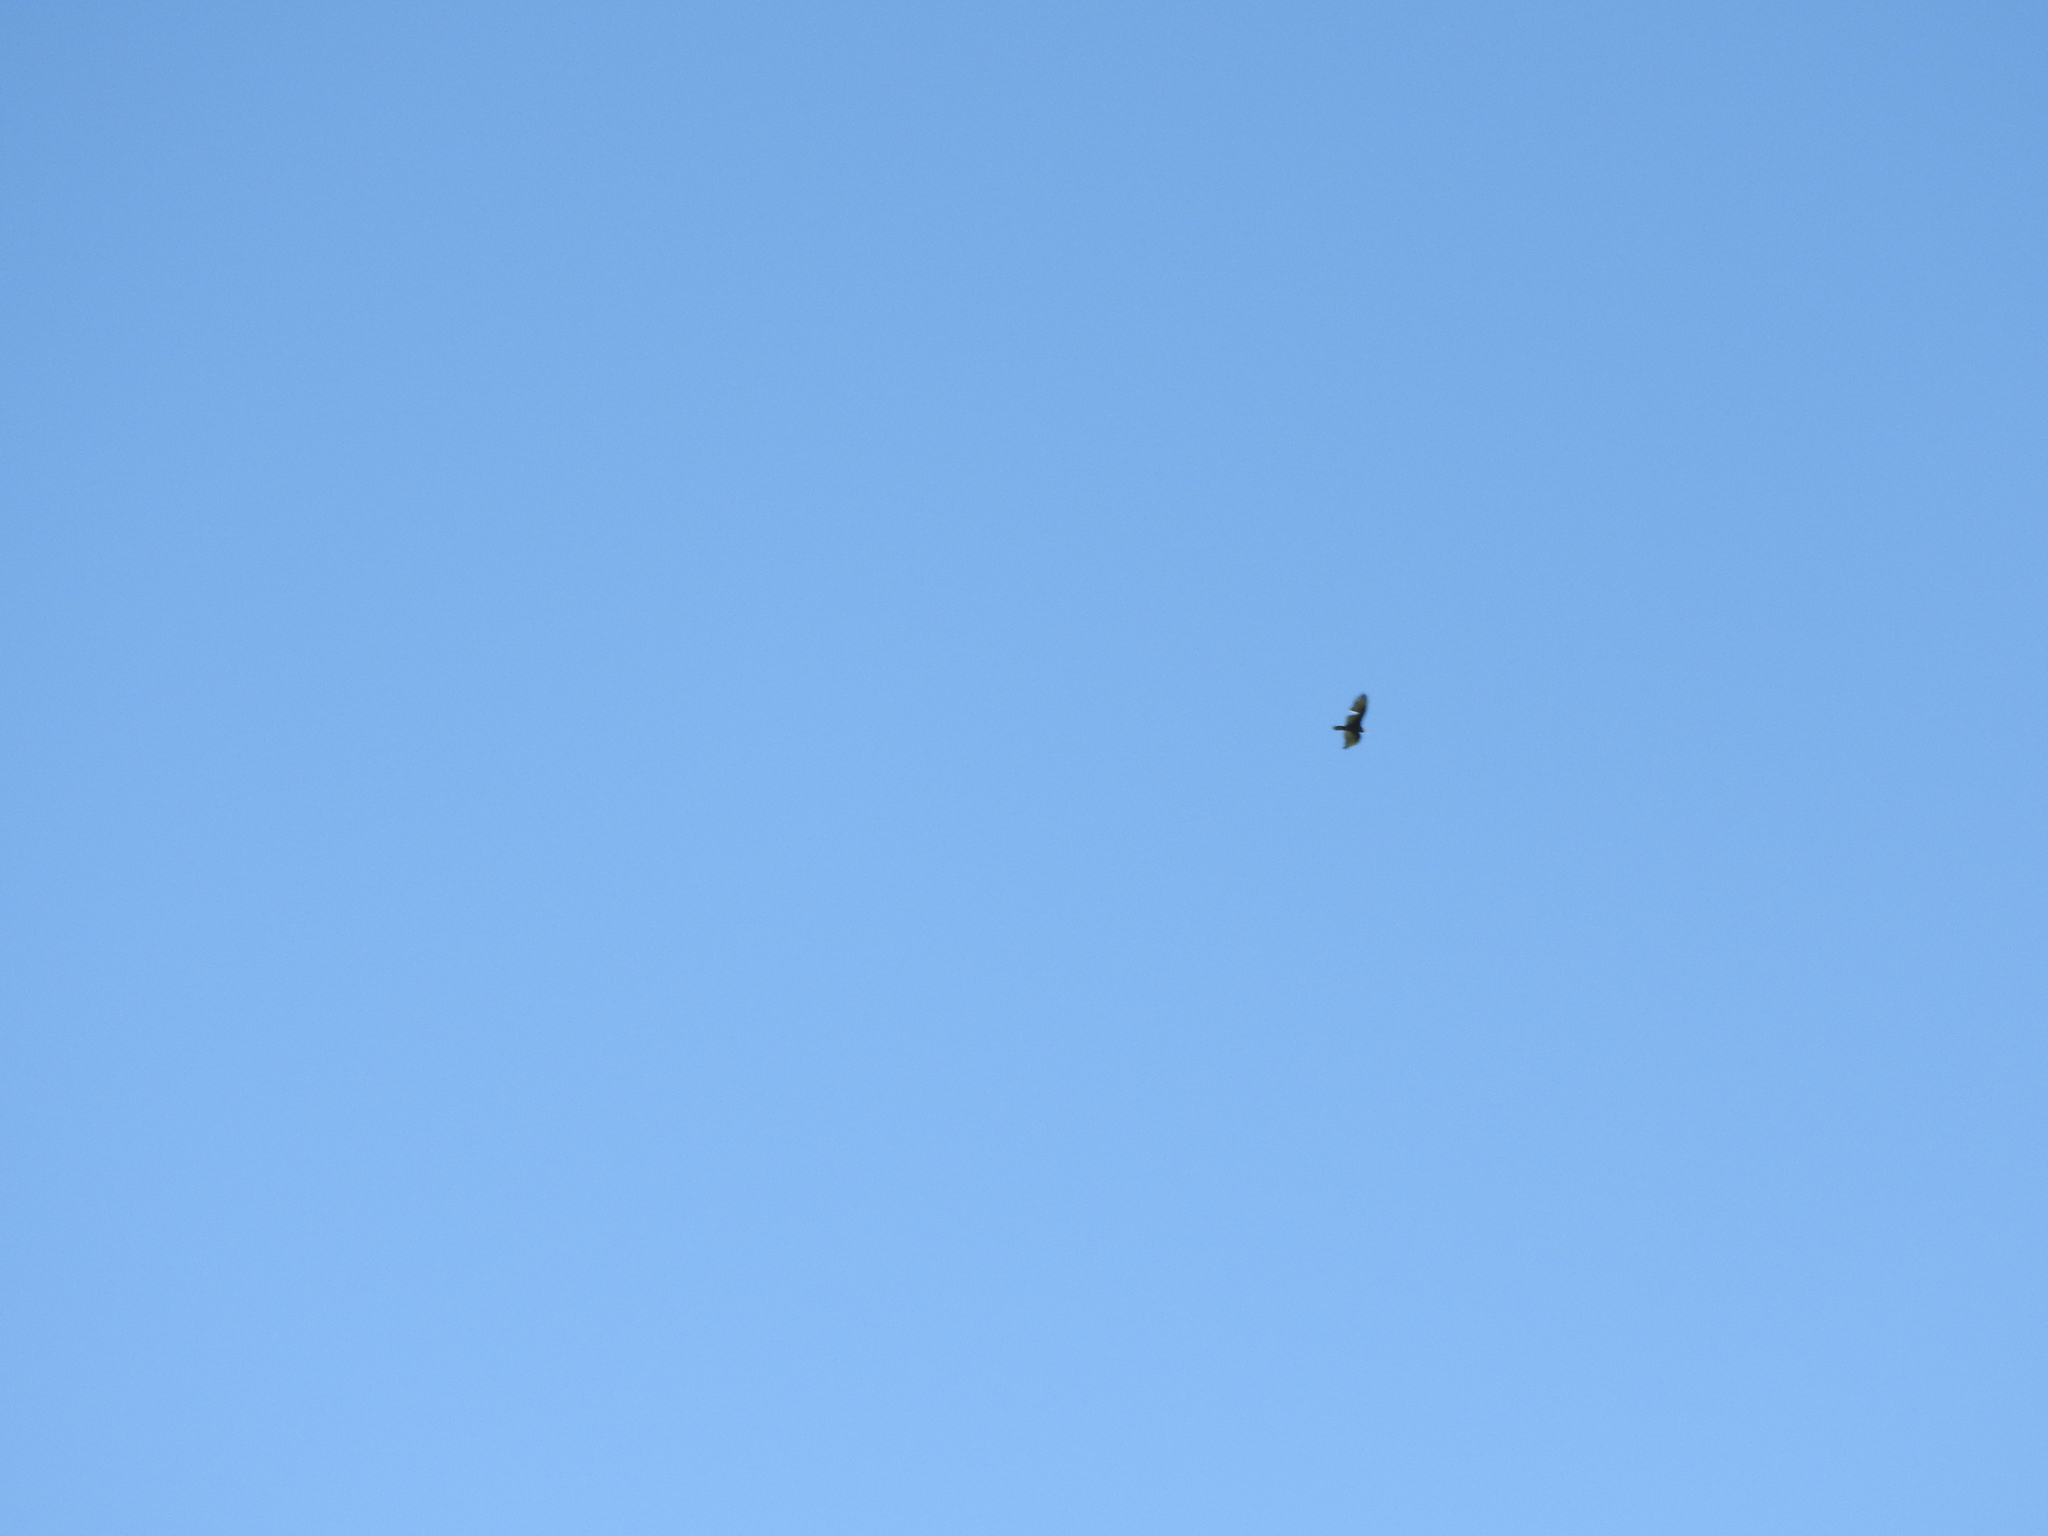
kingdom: Animalia
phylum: Chordata
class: Aves
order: Accipitriformes
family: Cathartidae
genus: Cathartes
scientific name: Cathartes aura
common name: Turkey vulture
